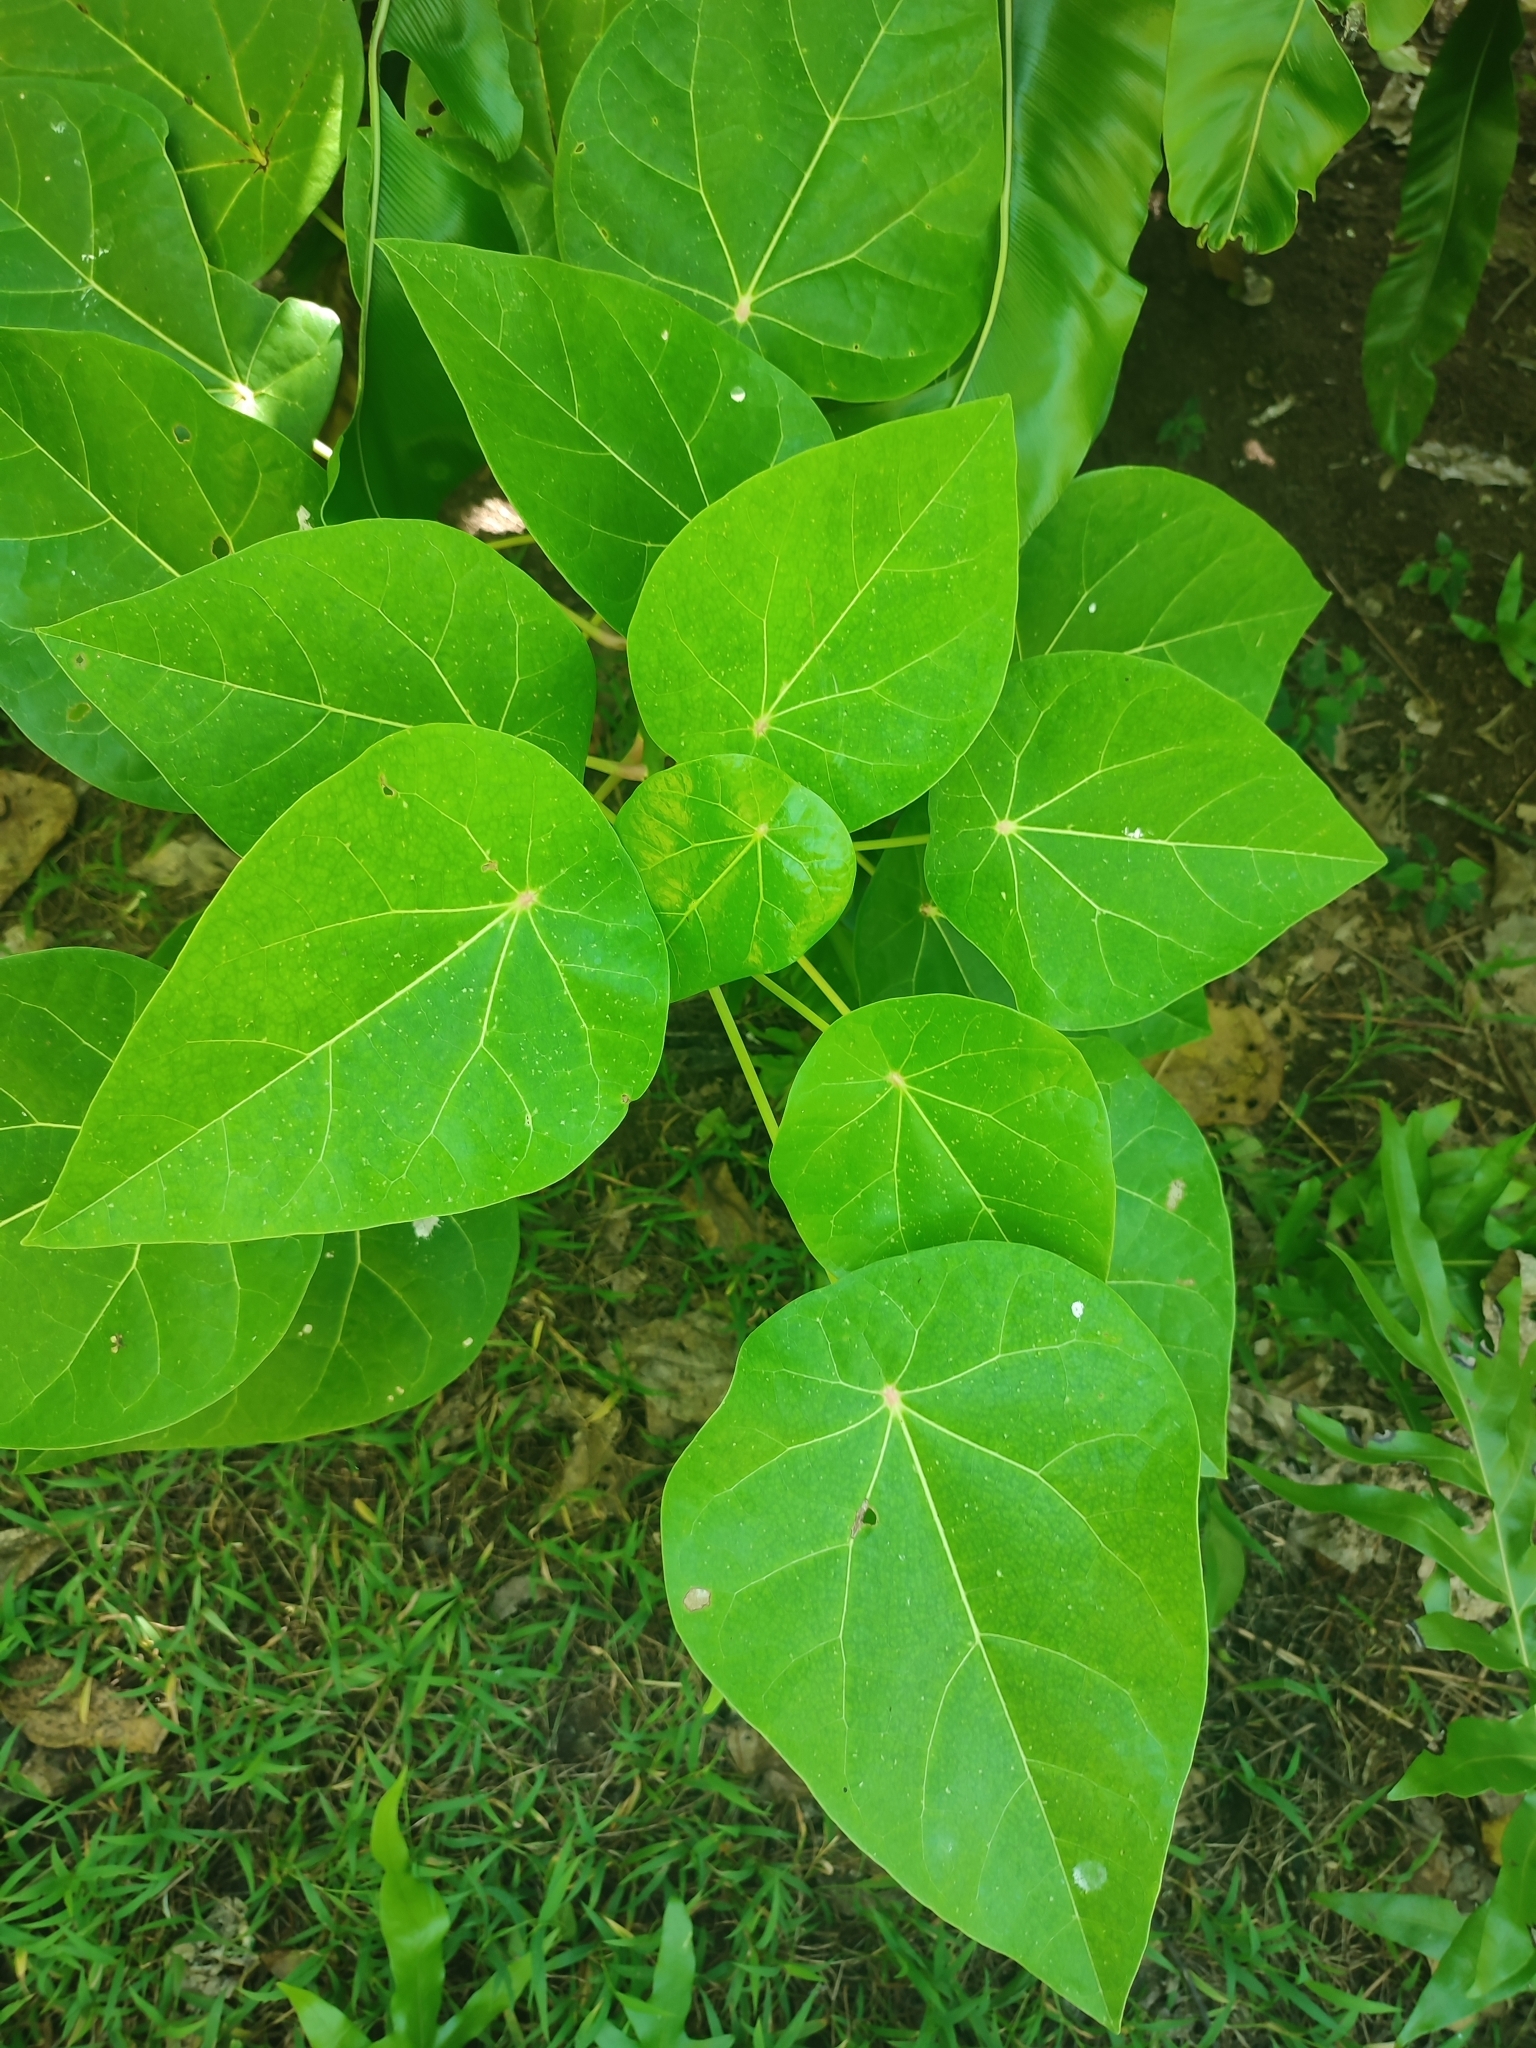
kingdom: Plantae
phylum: Tracheophyta
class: Magnoliopsida
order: Laurales
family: Hernandiaceae
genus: Hernandia
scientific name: Hernandia nymphaeifolia
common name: Sea hearse
